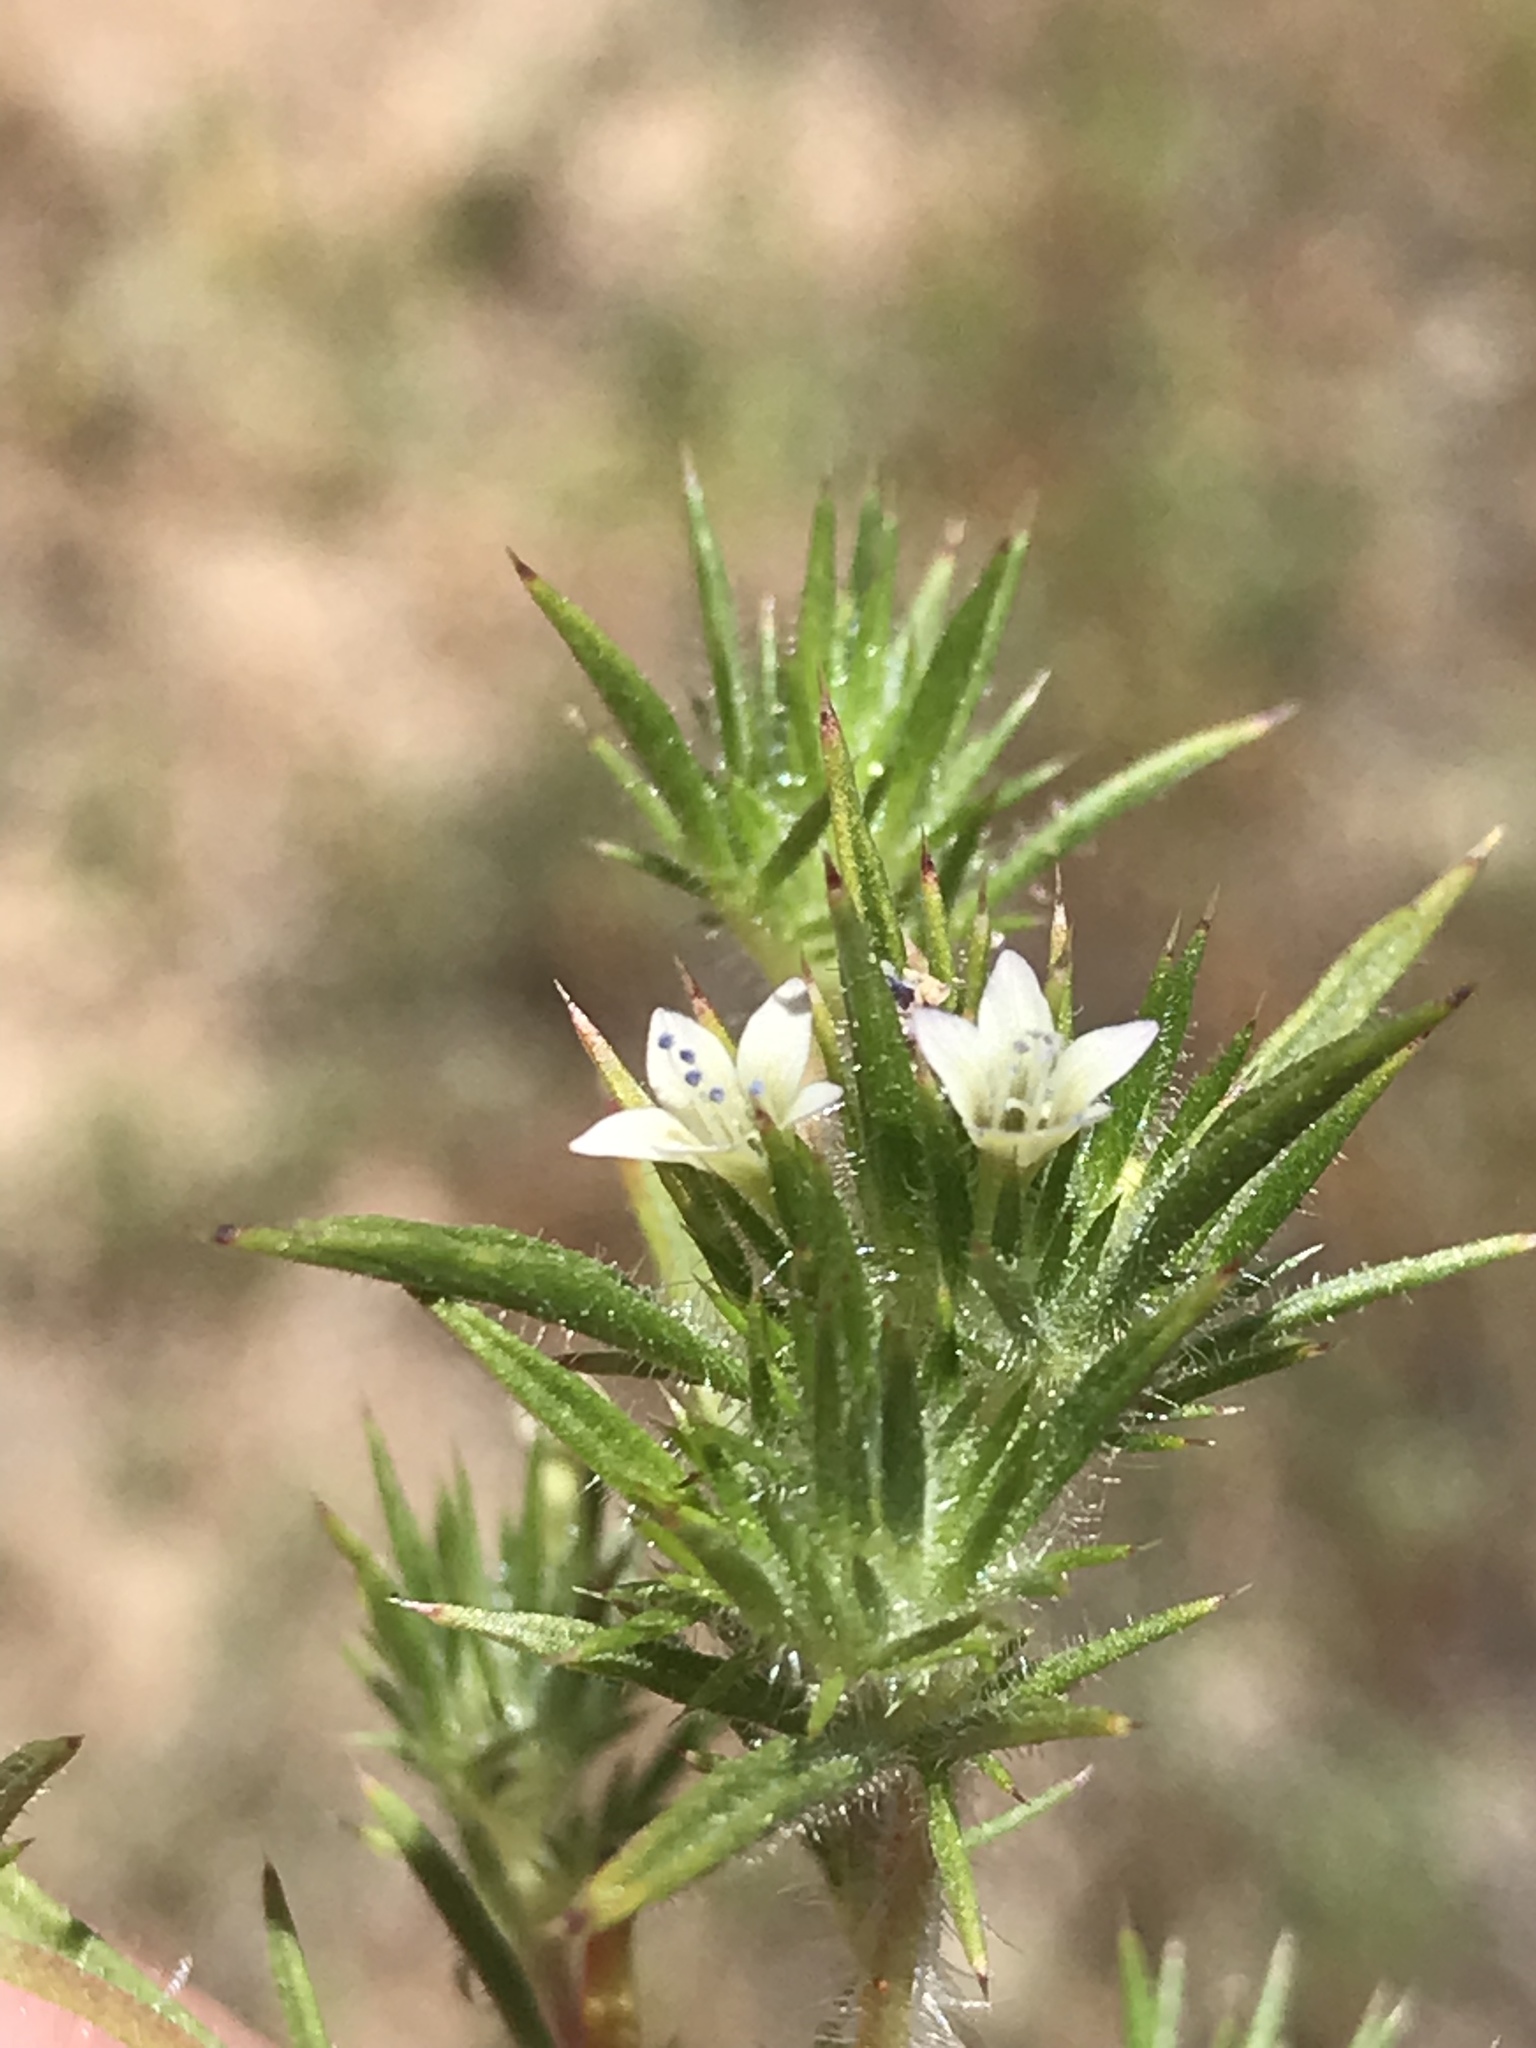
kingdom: Plantae
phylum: Tracheophyta
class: Magnoliopsida
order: Ericales
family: Polemoniaceae
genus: Navarretia
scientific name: Navarretia peninsularis
